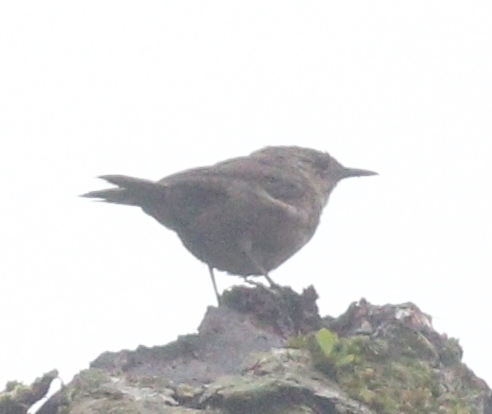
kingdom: Animalia
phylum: Chordata
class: Aves
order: Passeriformes
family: Troglodytidae
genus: Troglodytes
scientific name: Troglodytes aedon
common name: House wren
